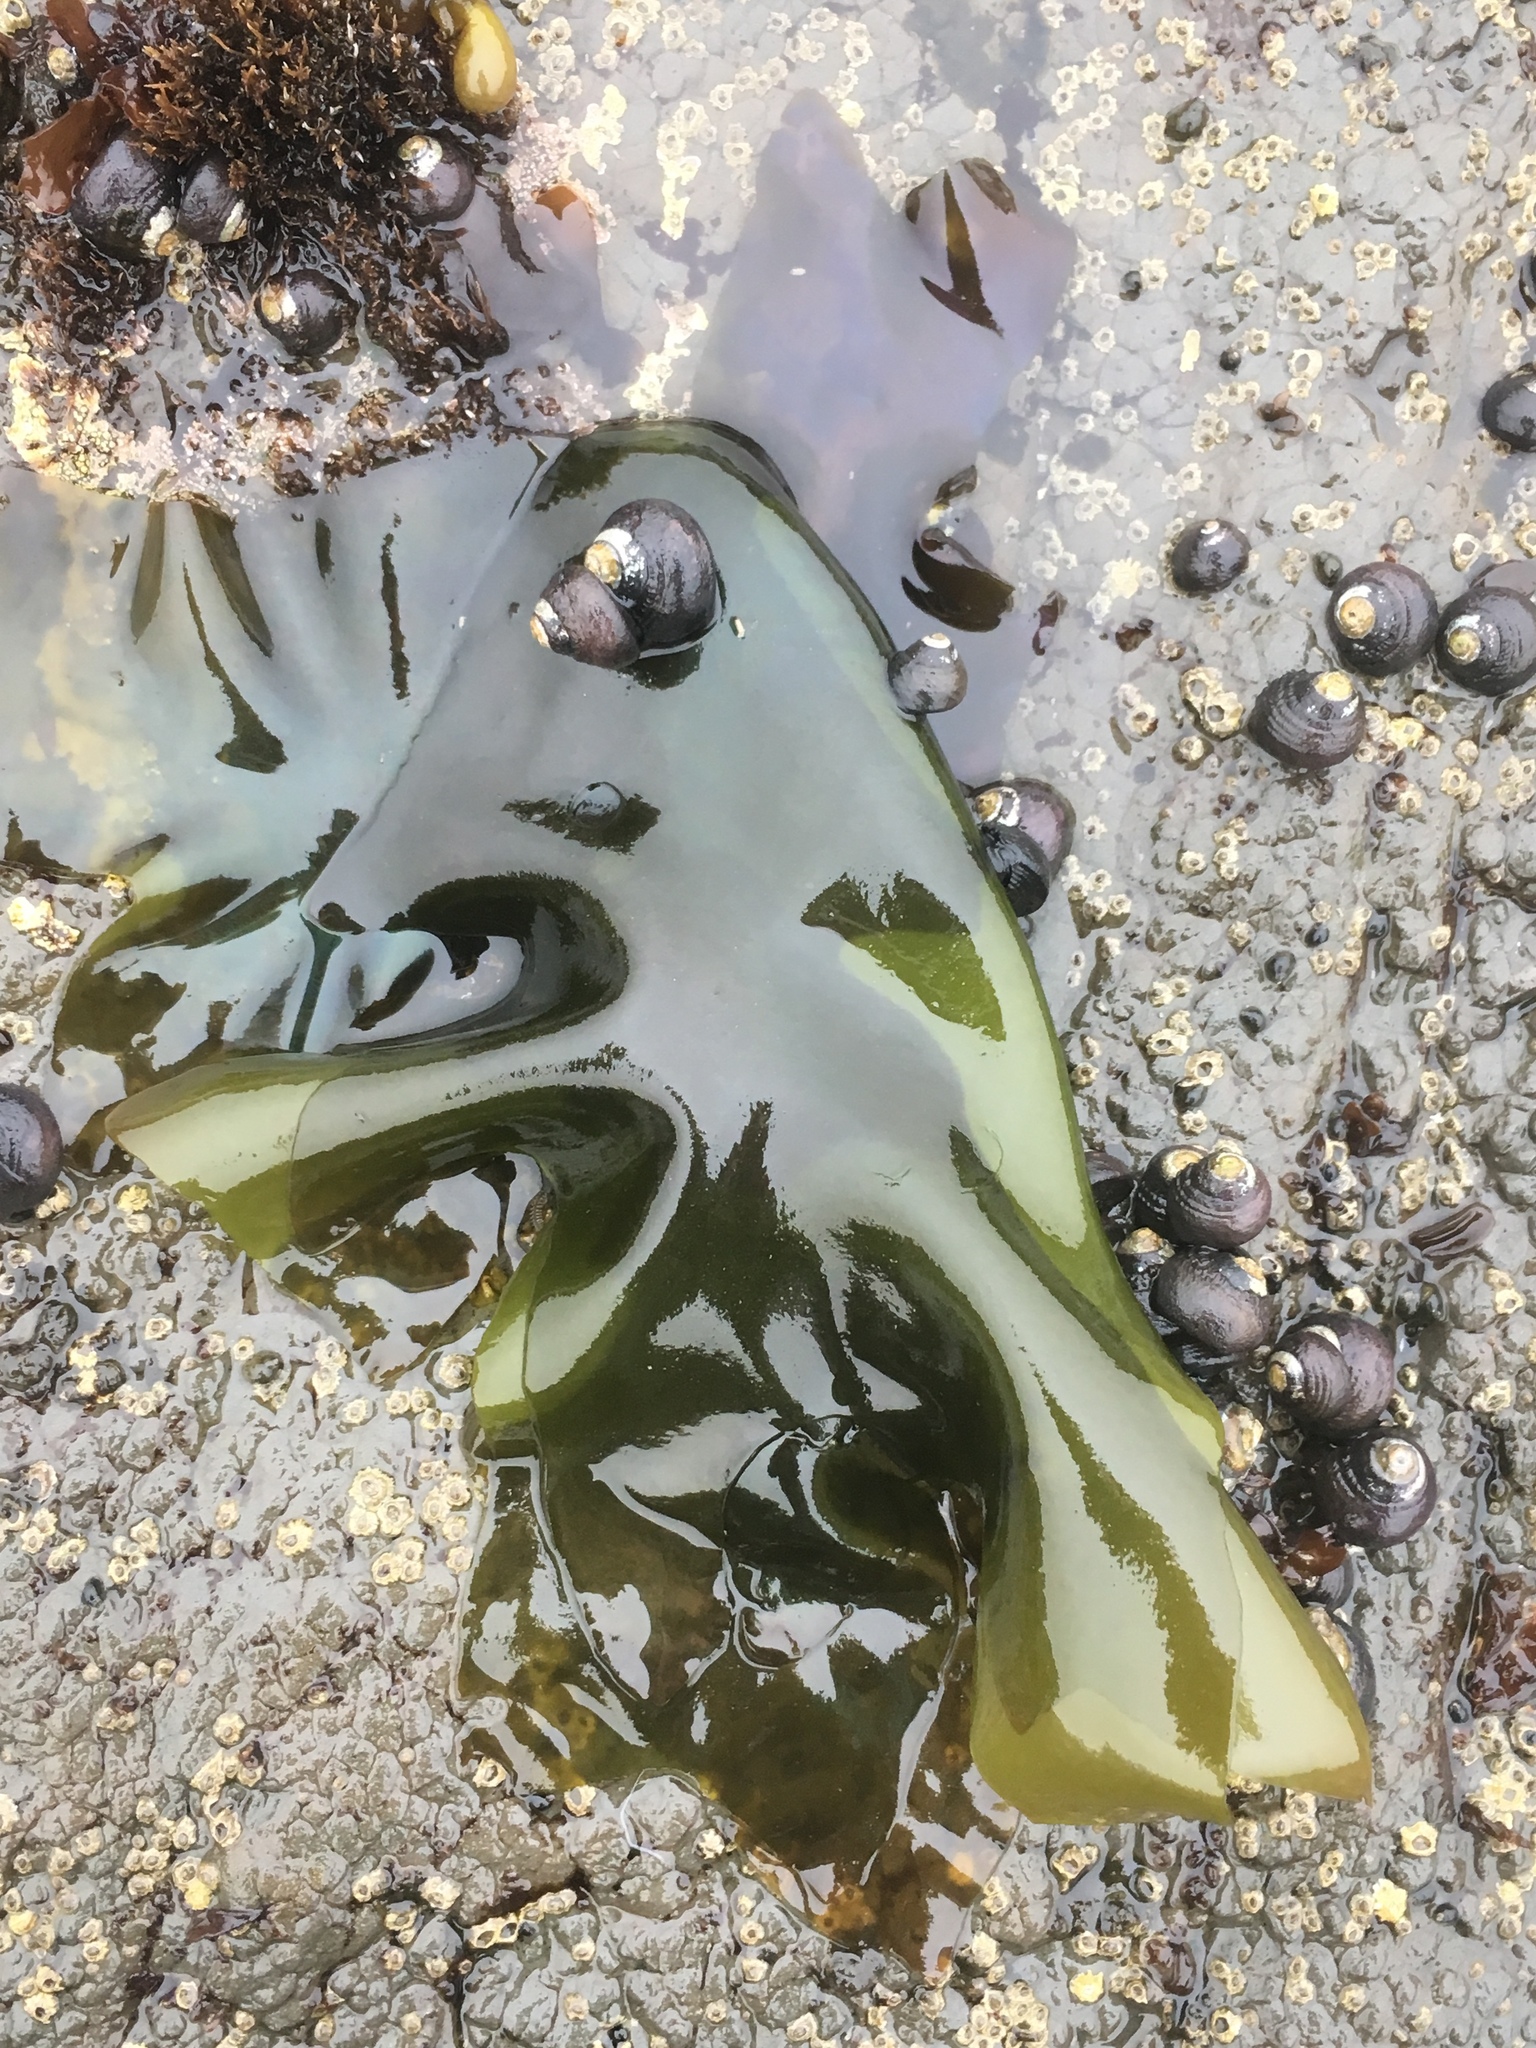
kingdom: Plantae
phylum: Rhodophyta
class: Florideophyceae
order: Gigartinales
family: Gigartinaceae
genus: Mazzaella
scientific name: Mazzaella flaccida
